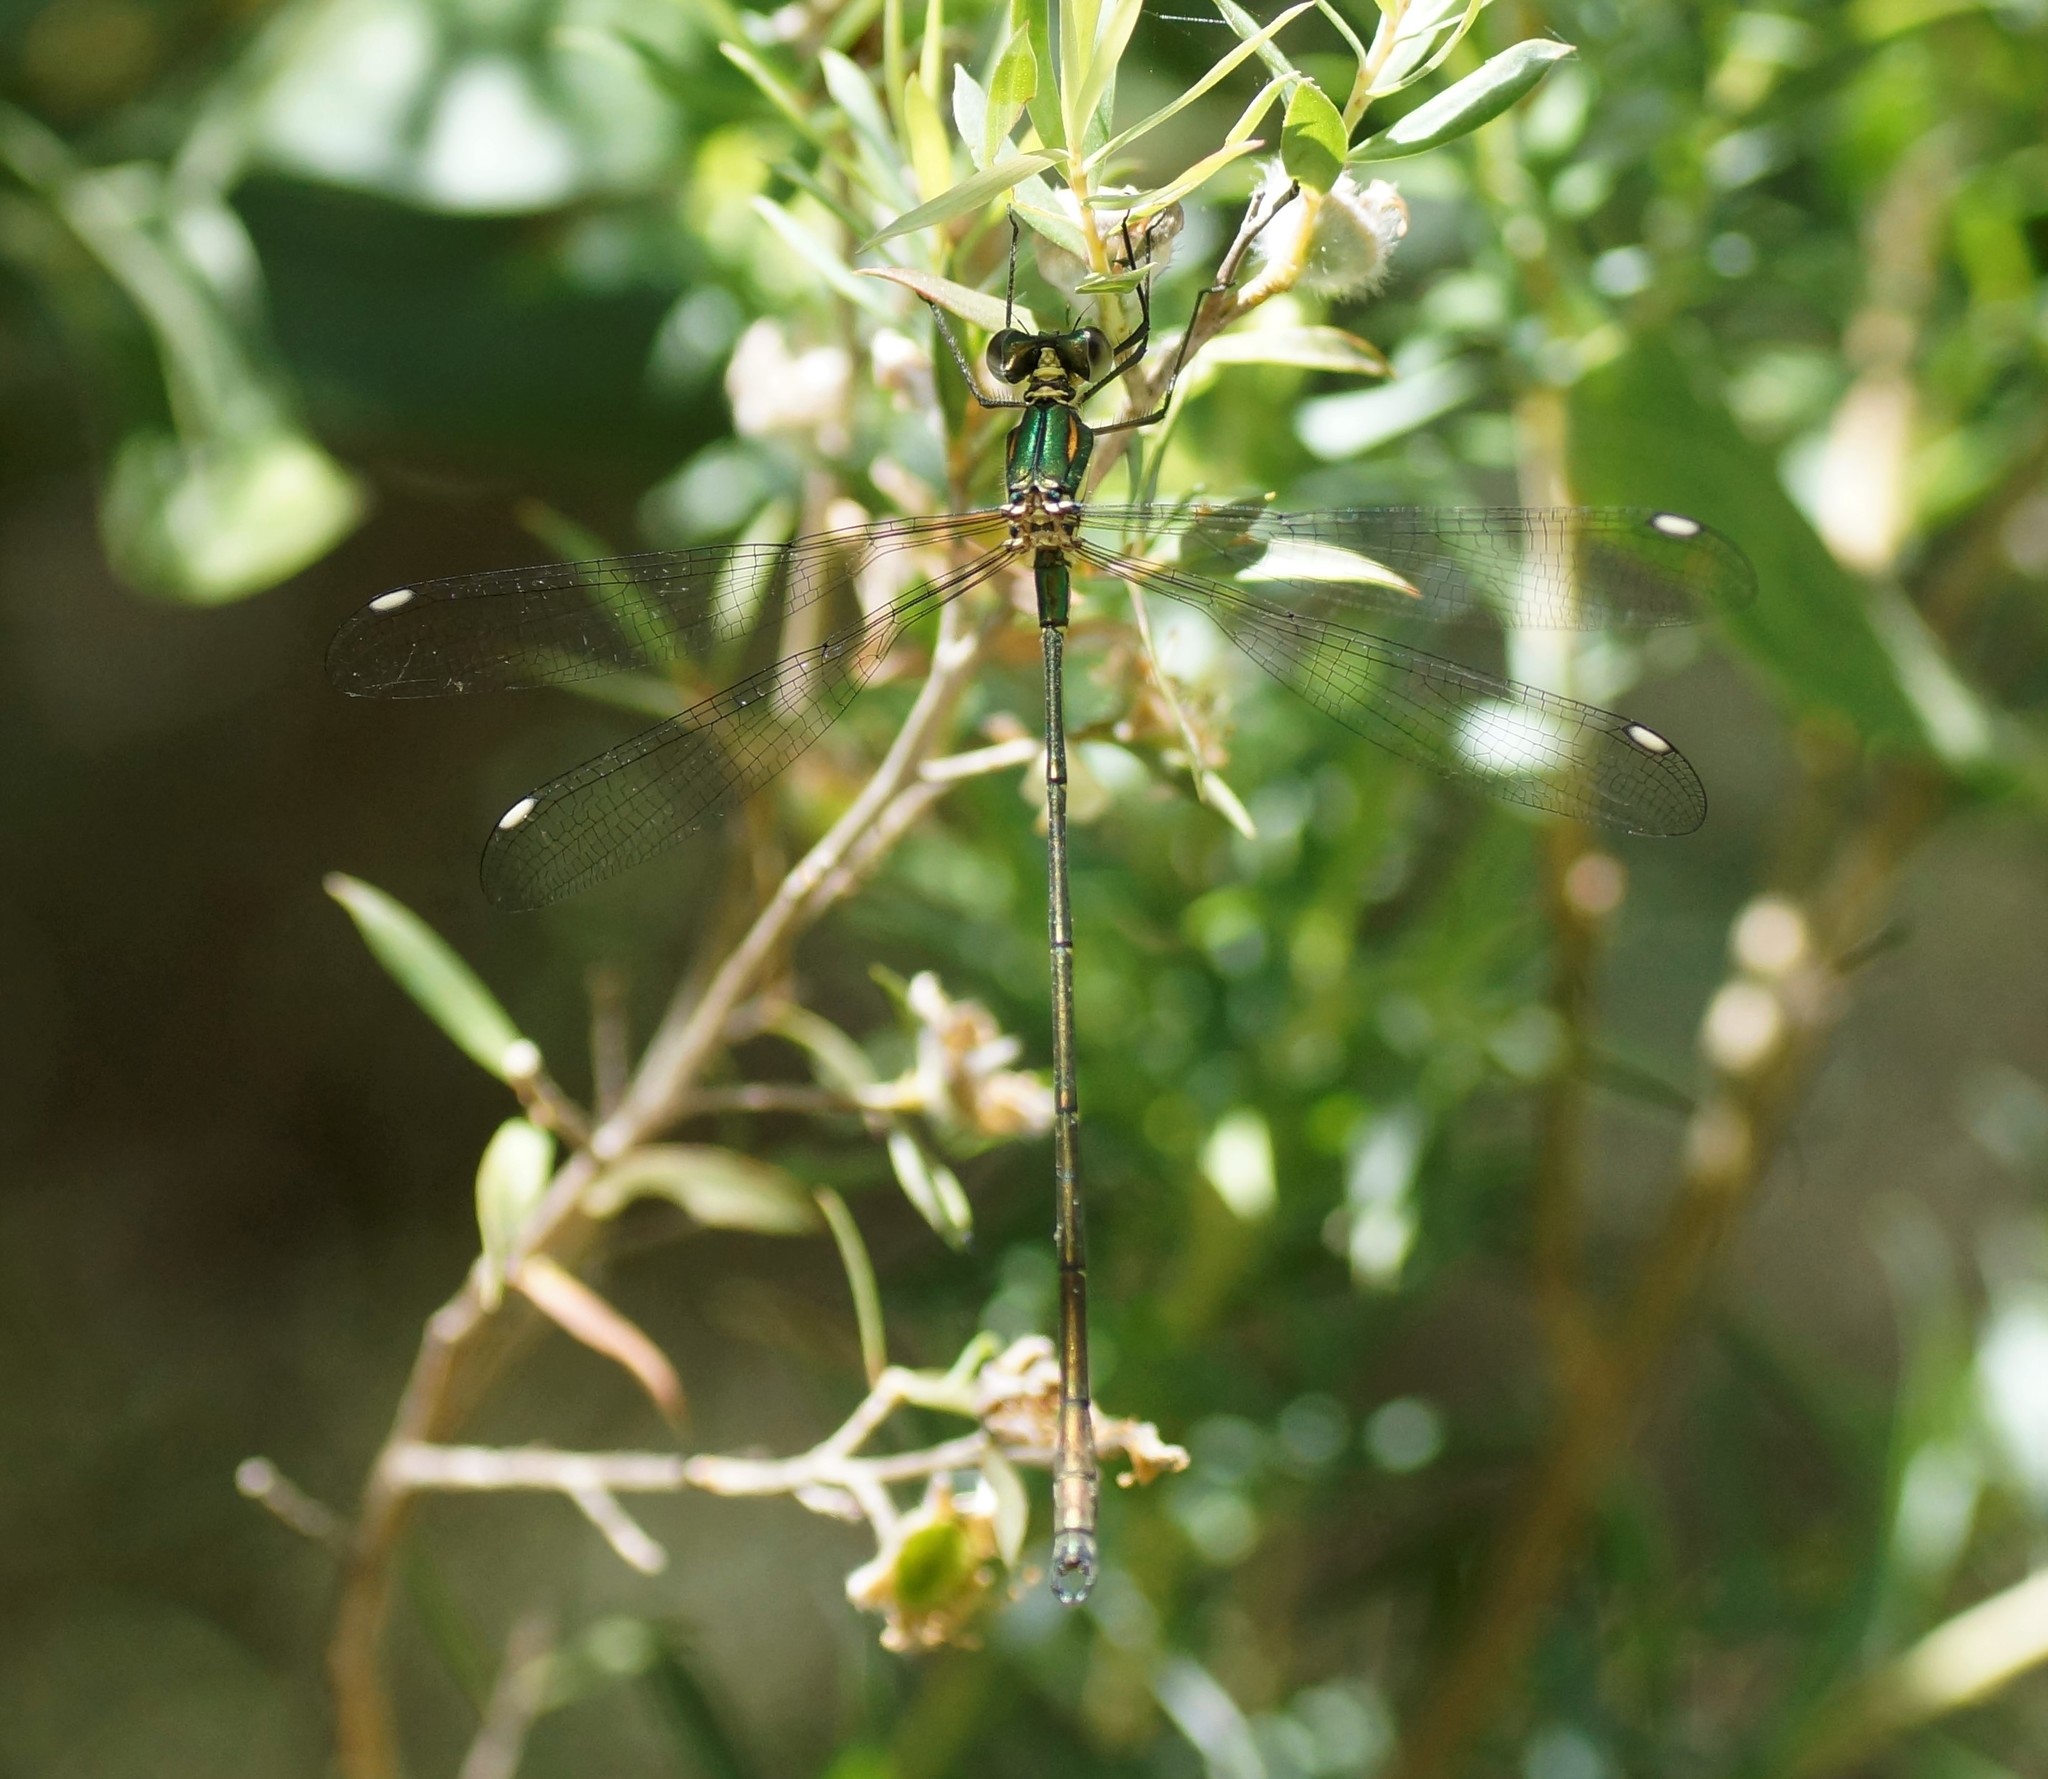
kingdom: Animalia
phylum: Arthropoda
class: Insecta
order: Odonata
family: Synlestidae
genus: Synlestes
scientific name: Synlestes weyersii
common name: Bronze needle
